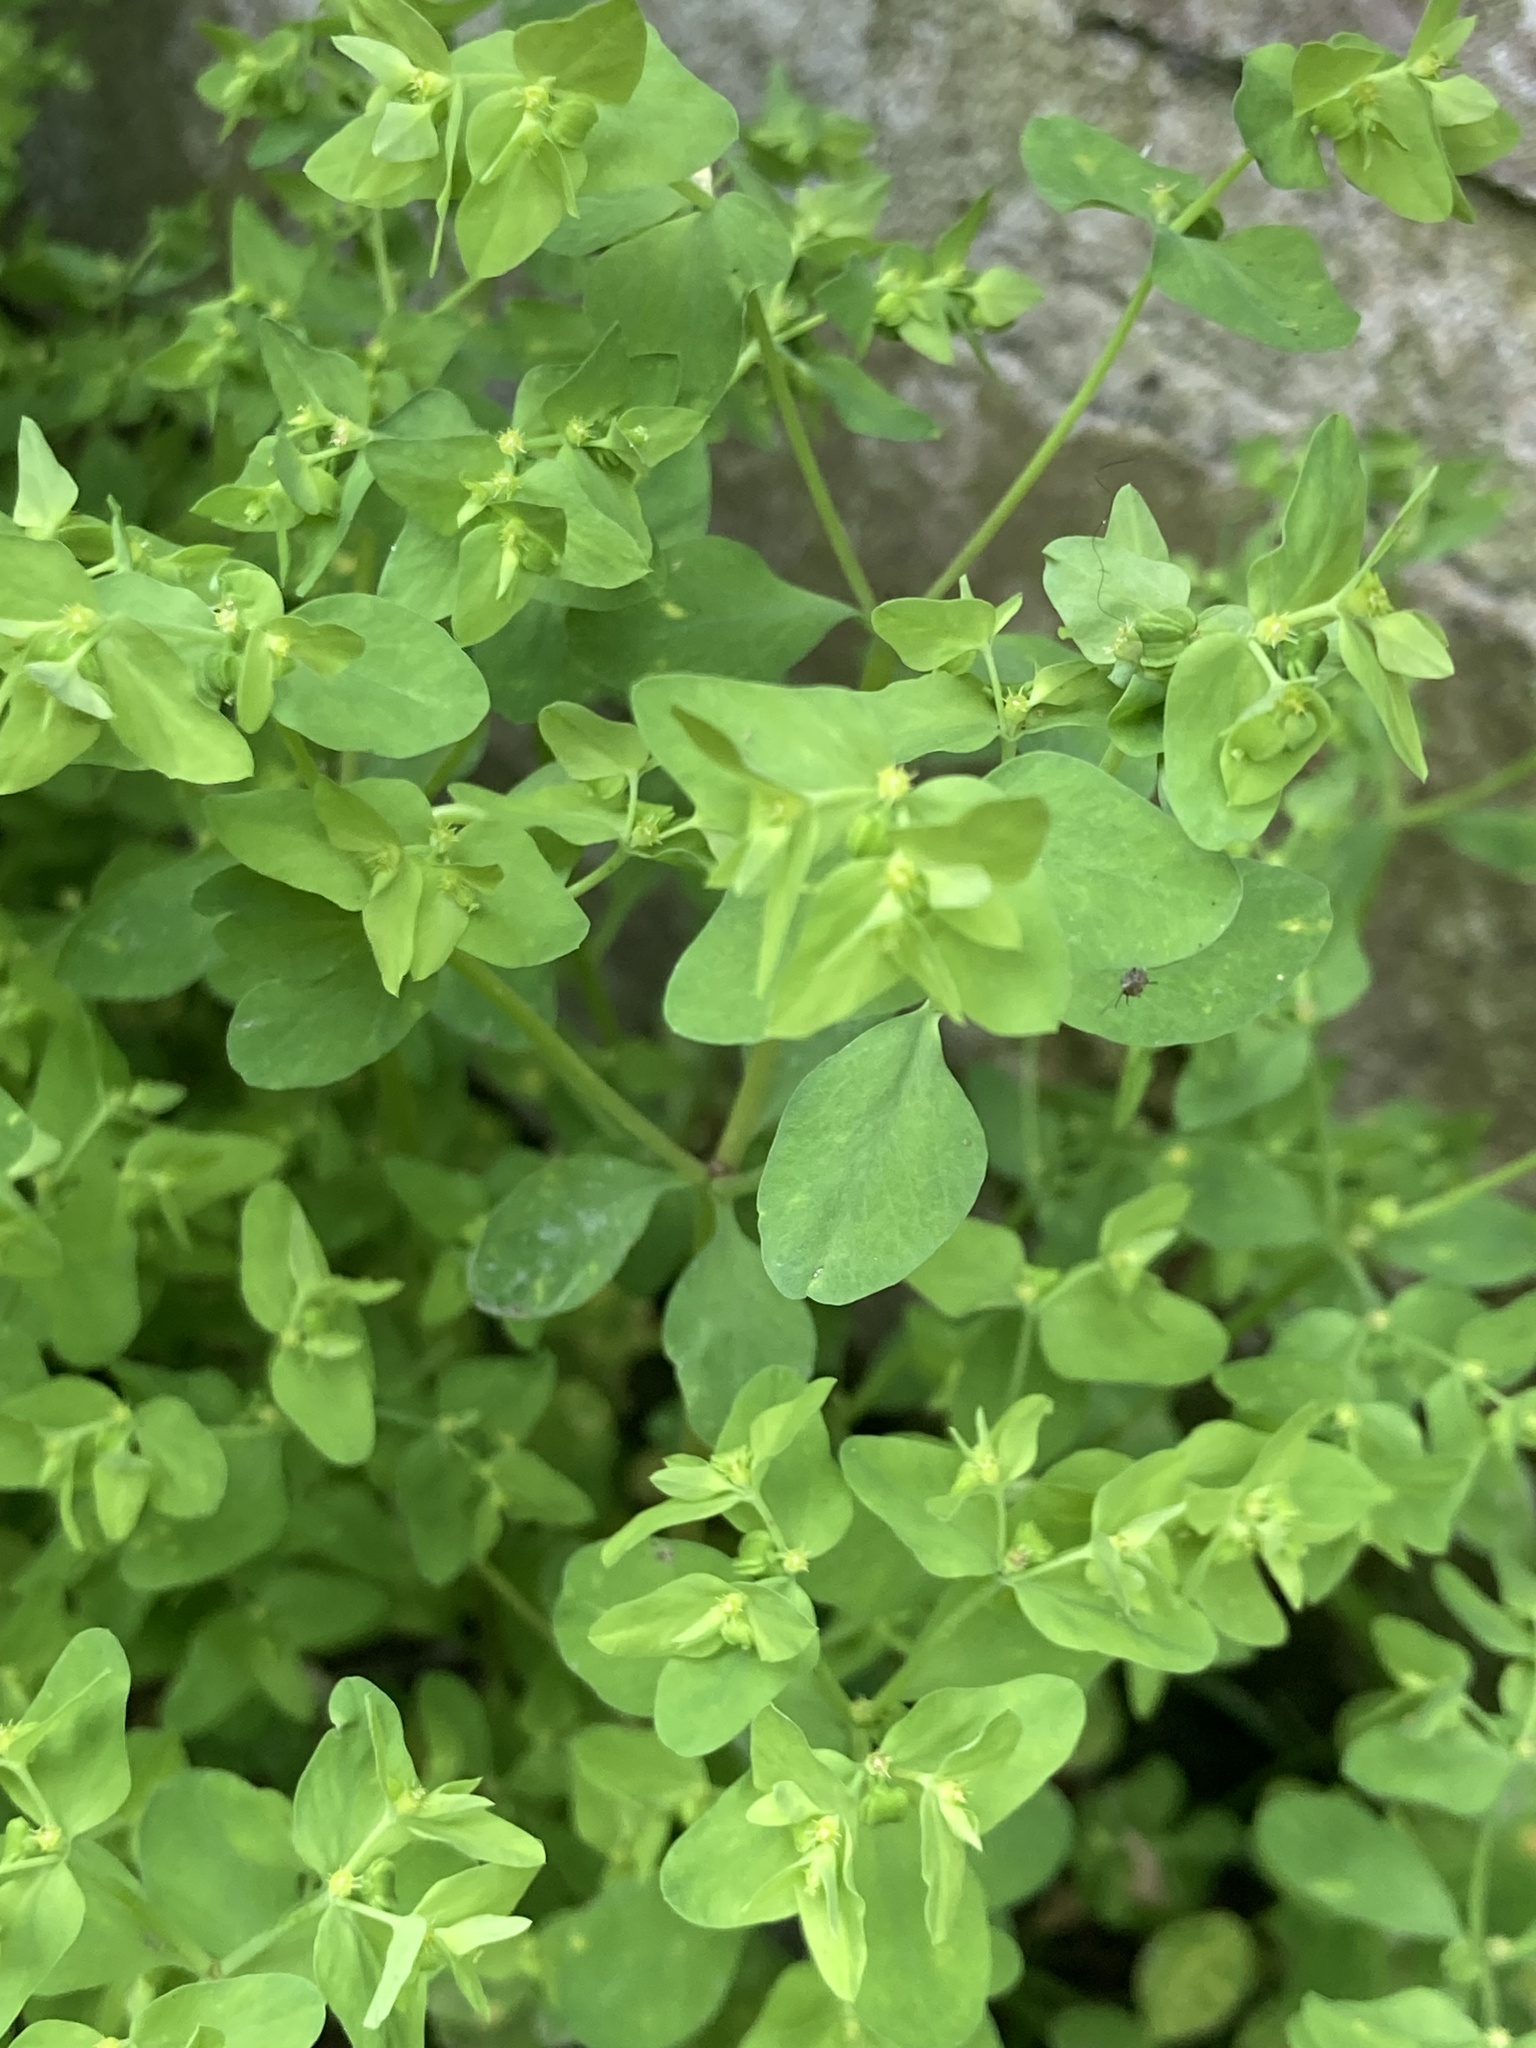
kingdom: Plantae
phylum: Tracheophyta
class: Magnoliopsida
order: Malpighiales
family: Euphorbiaceae
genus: Euphorbia
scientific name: Euphorbia peplus
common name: Petty spurge
